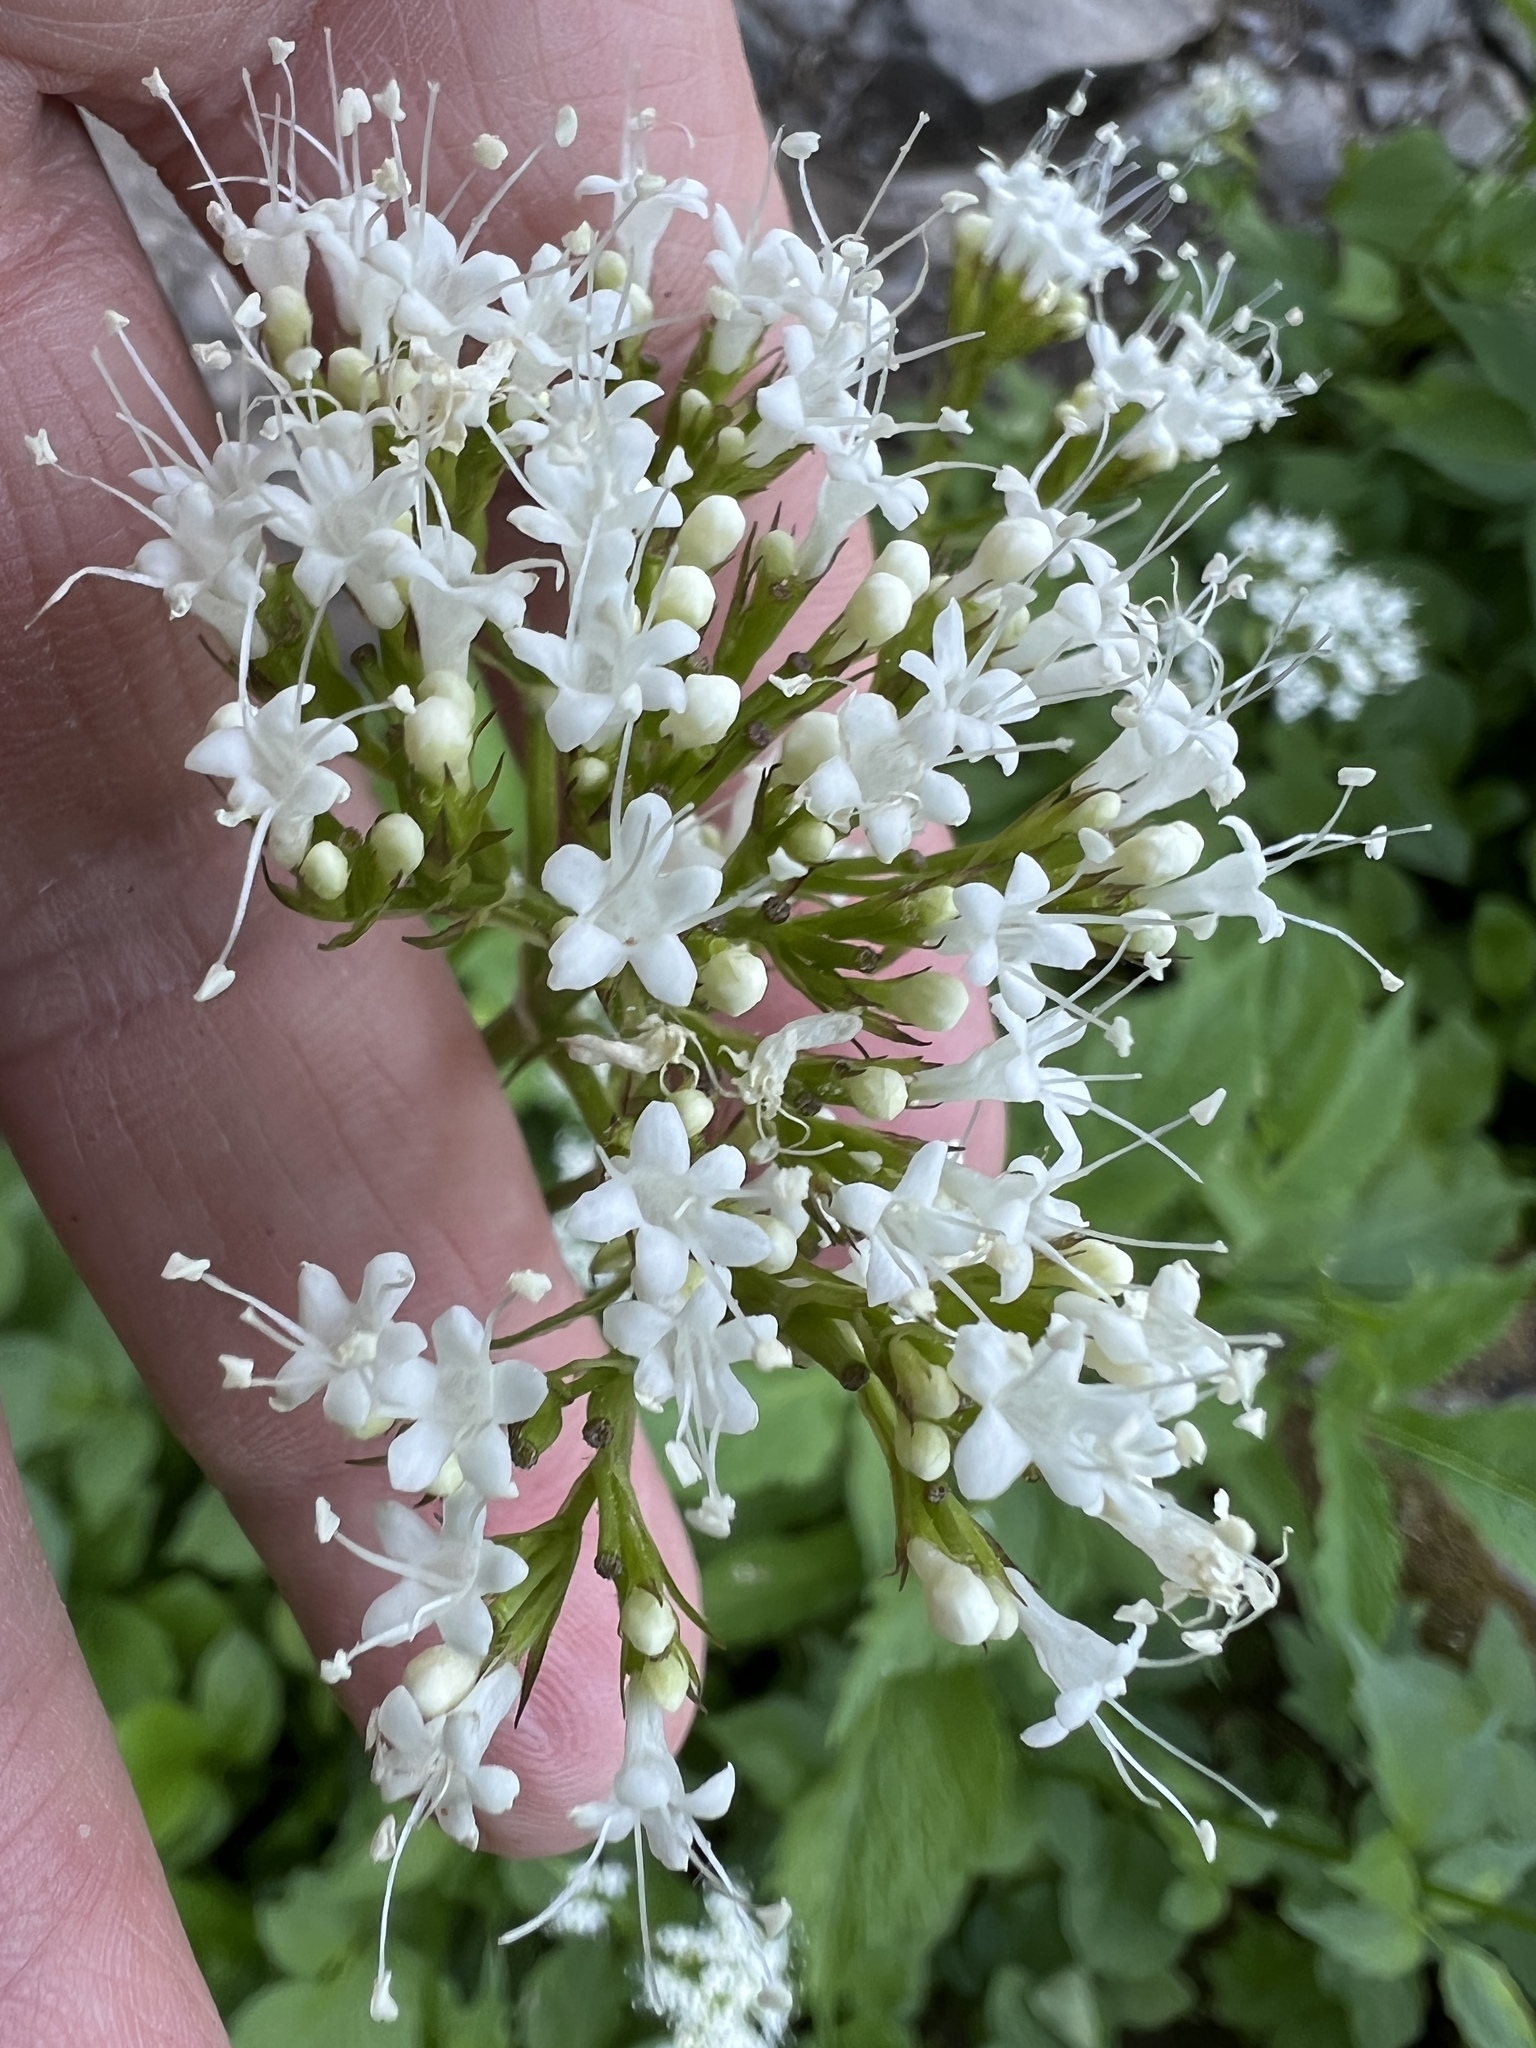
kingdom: Plantae
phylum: Tracheophyta
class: Magnoliopsida
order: Dipsacales
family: Caprifoliaceae
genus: Valeriana
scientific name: Valeriana sitchensis
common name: Pacific valerian
